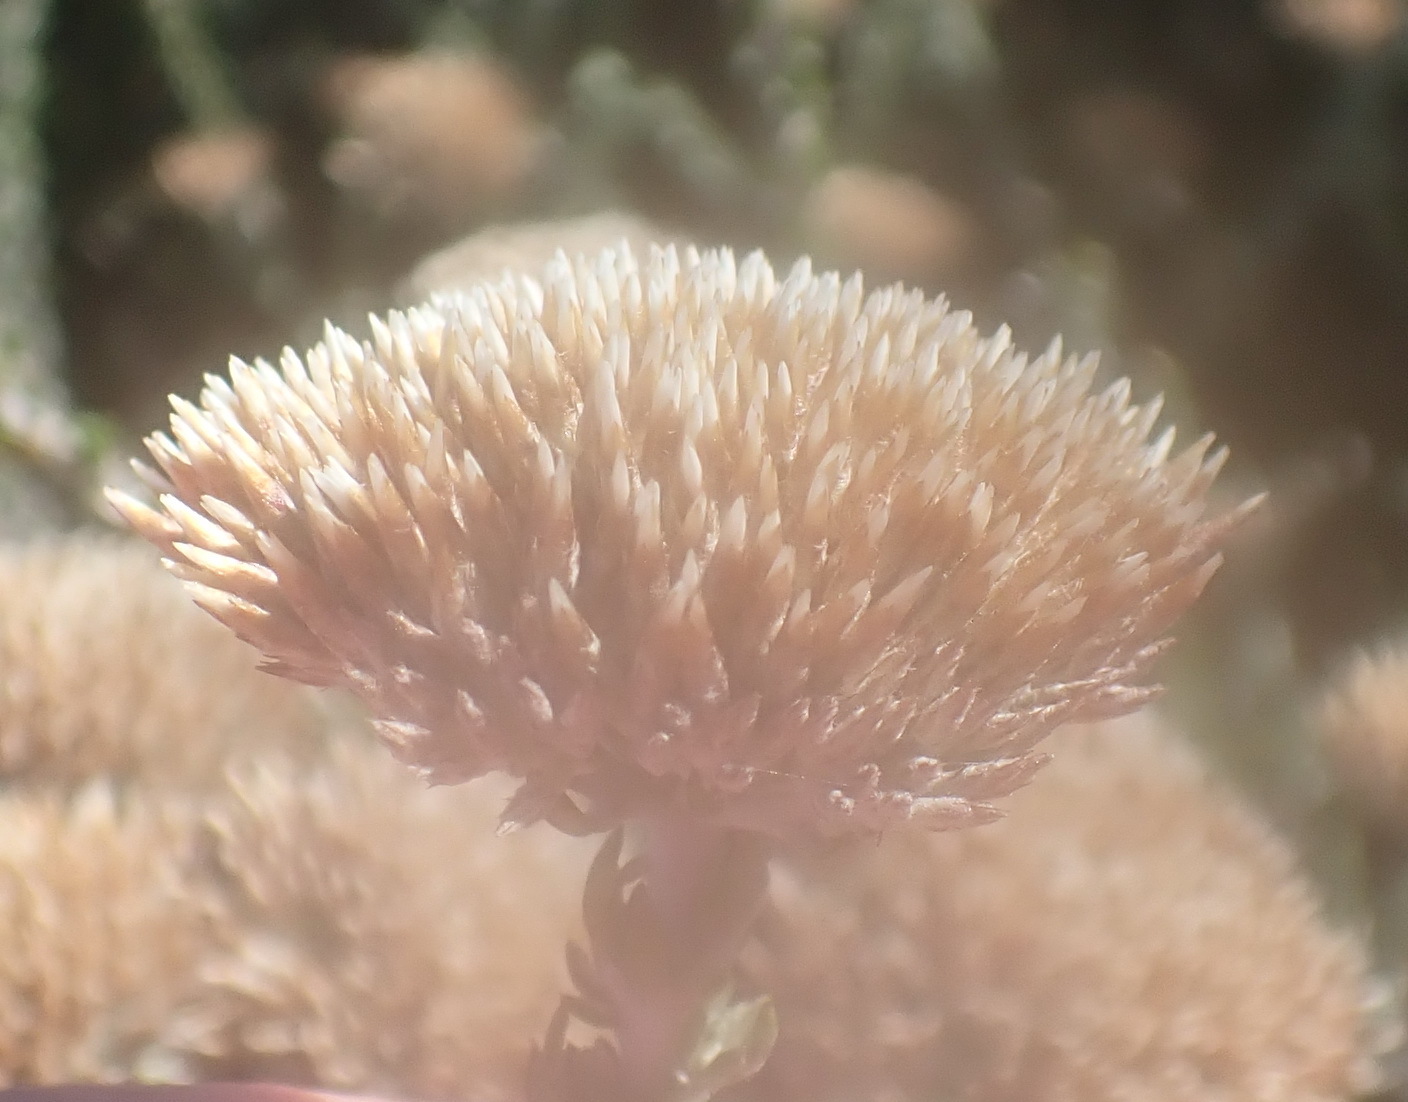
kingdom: Plantae
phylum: Tracheophyta
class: Magnoliopsida
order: Asterales
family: Asteraceae
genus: Metalasia
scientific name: Metalasia pungens
